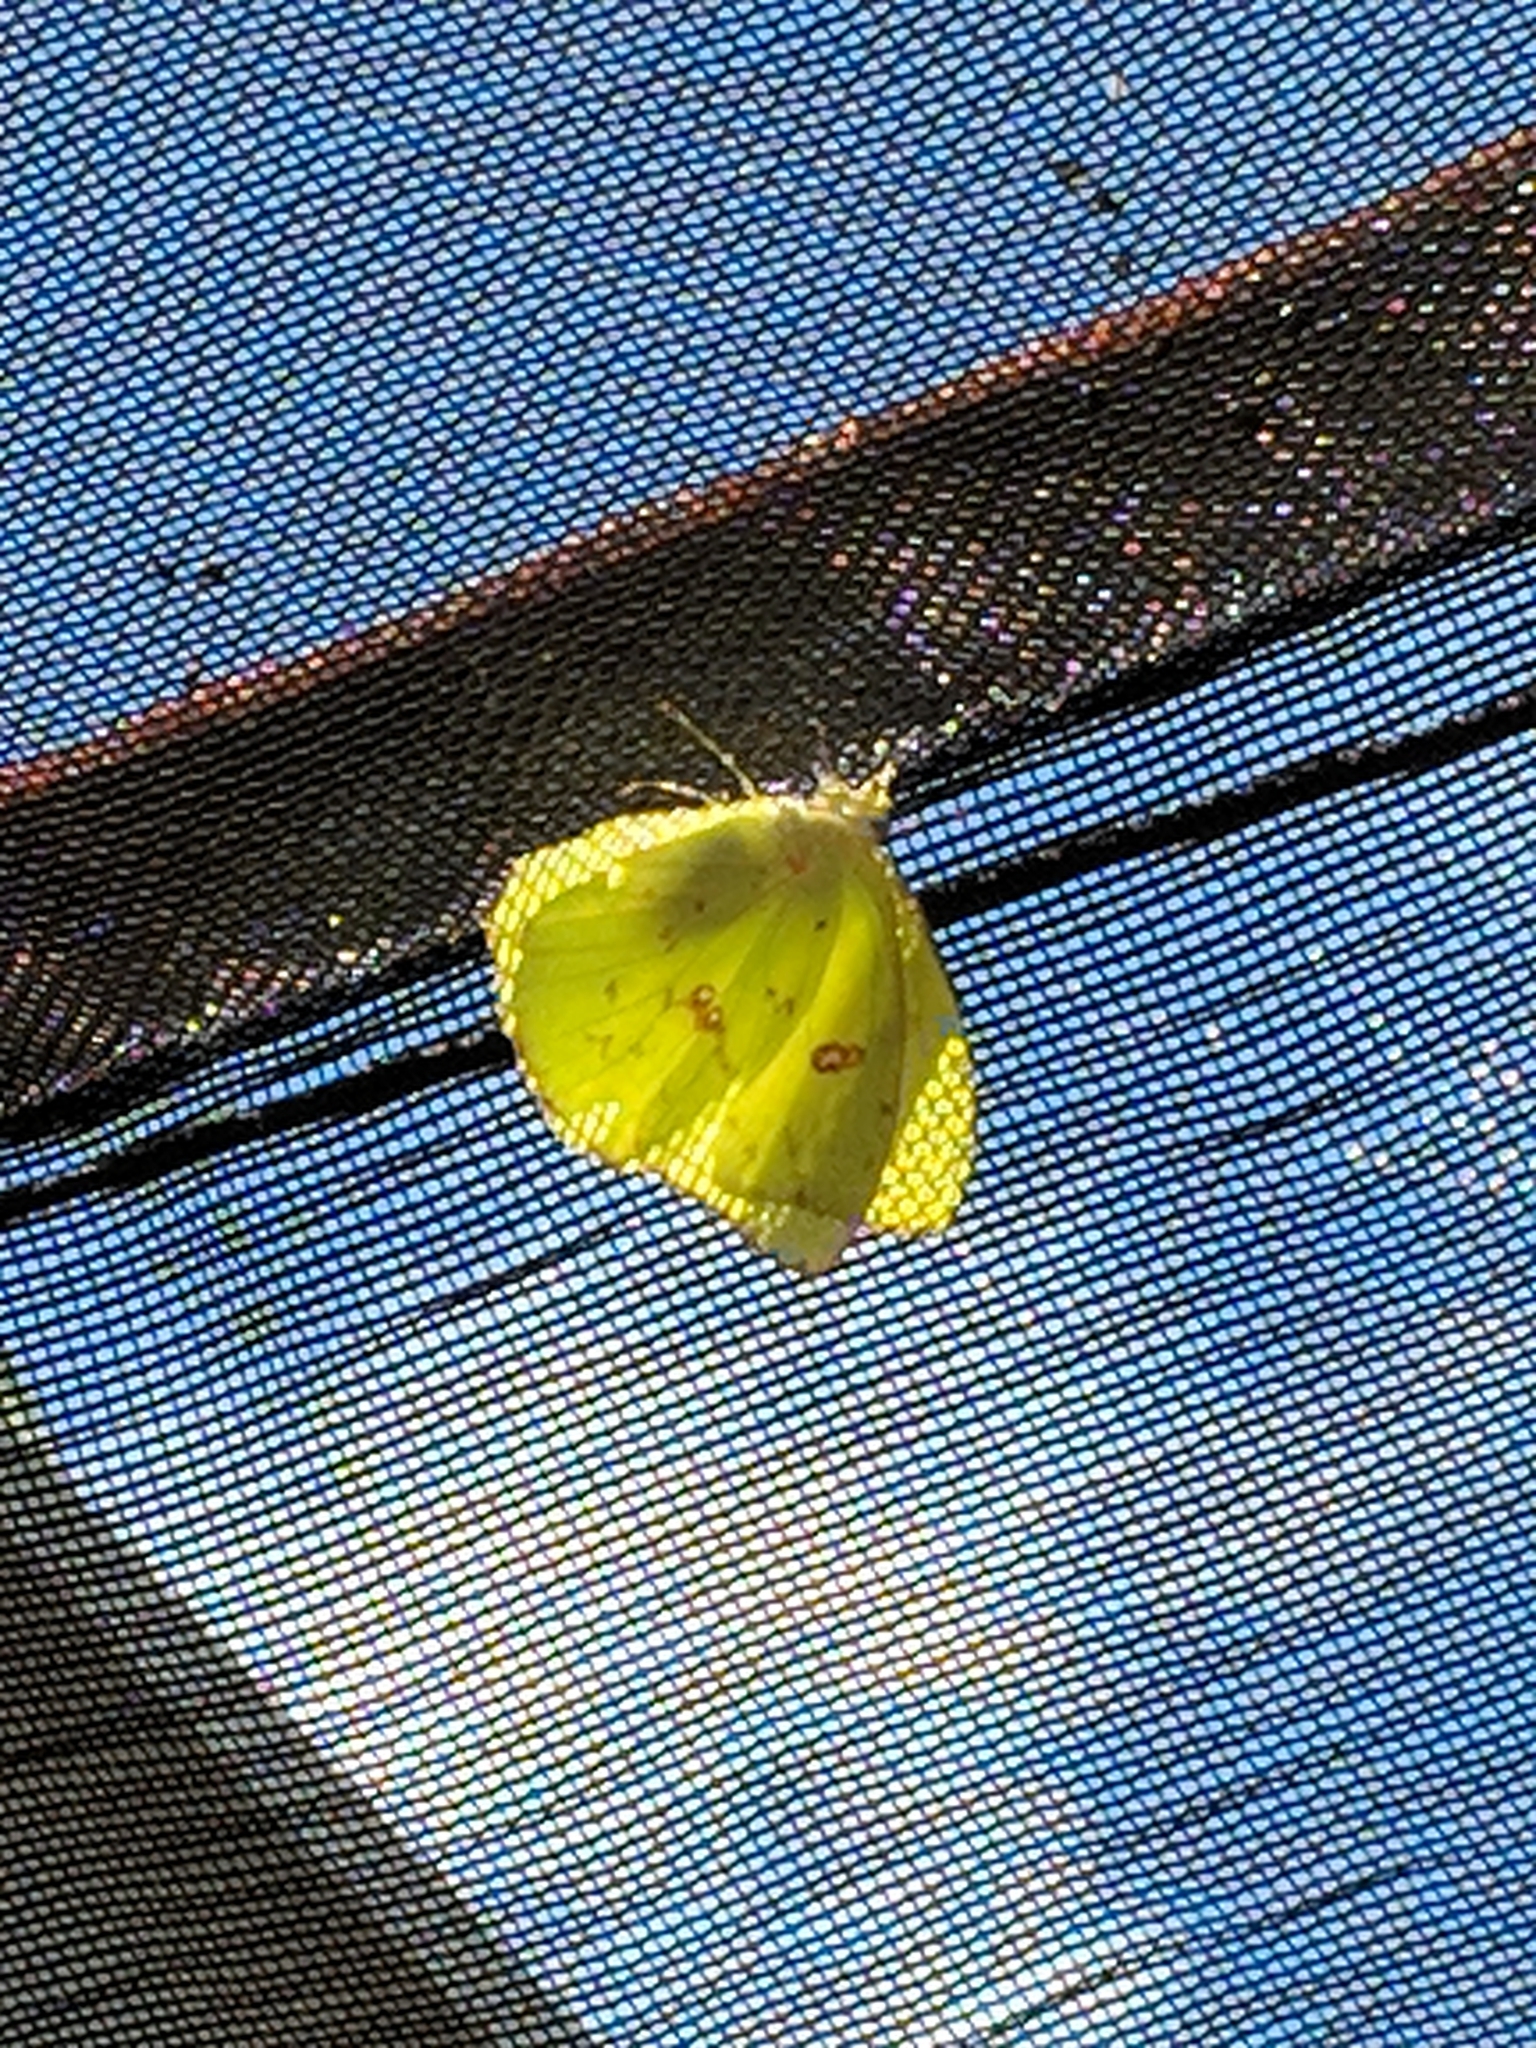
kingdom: Animalia
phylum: Arthropoda
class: Insecta
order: Lepidoptera
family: Pieridae
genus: Phoebis
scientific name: Phoebis sennae
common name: Cloudless sulphur
